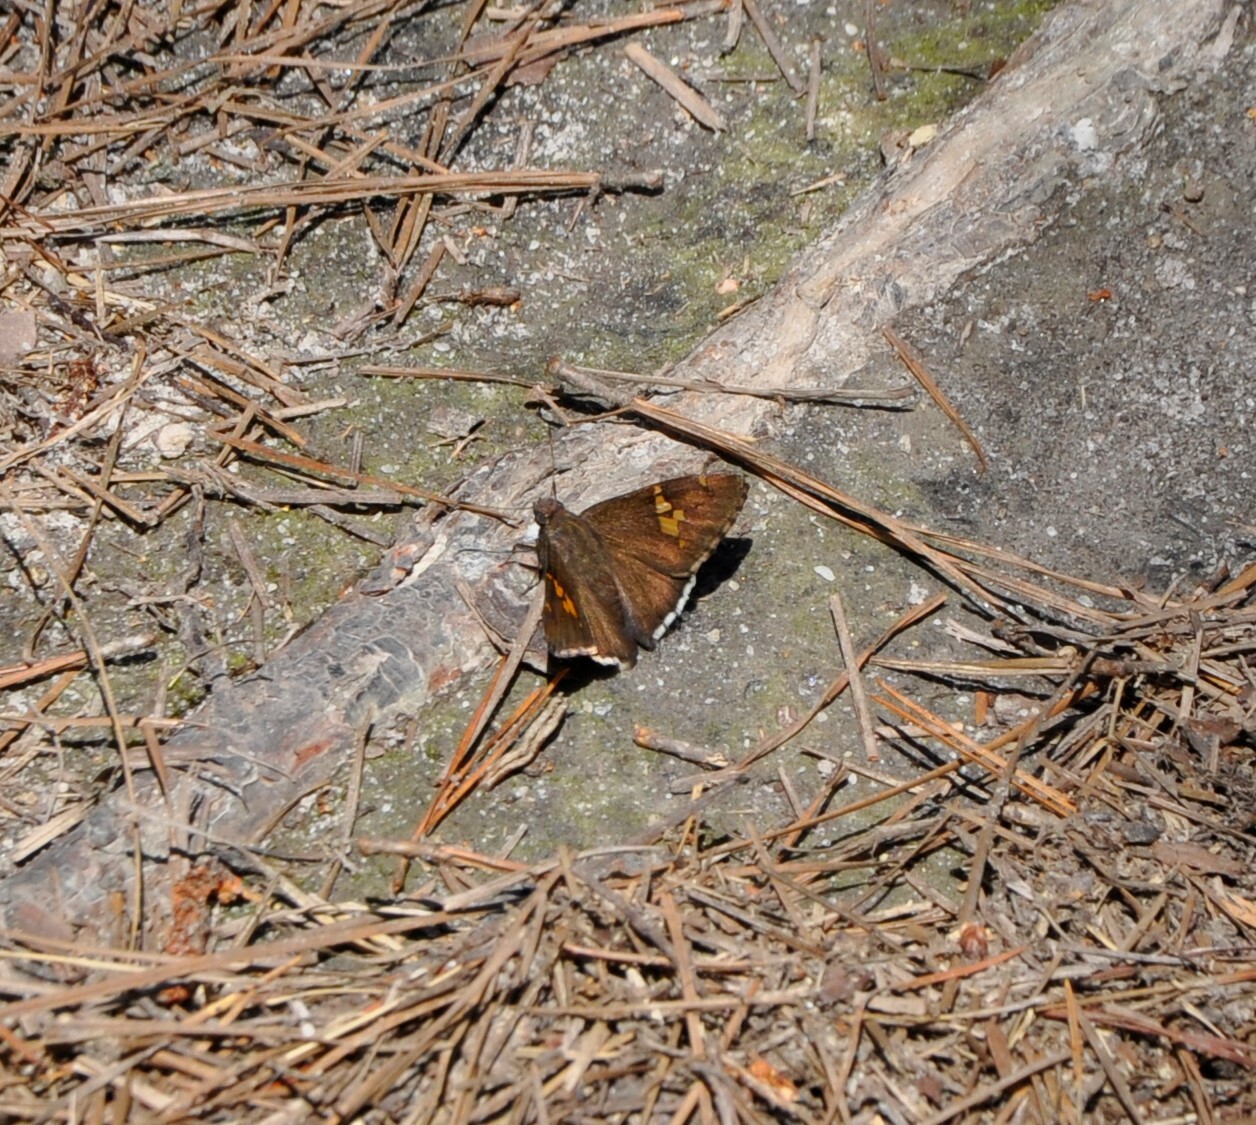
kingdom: Animalia
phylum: Arthropoda
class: Insecta
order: Lepidoptera
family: Hesperiidae
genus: Epargyreus
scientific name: Epargyreus clarus
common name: Silver-spotted skipper
